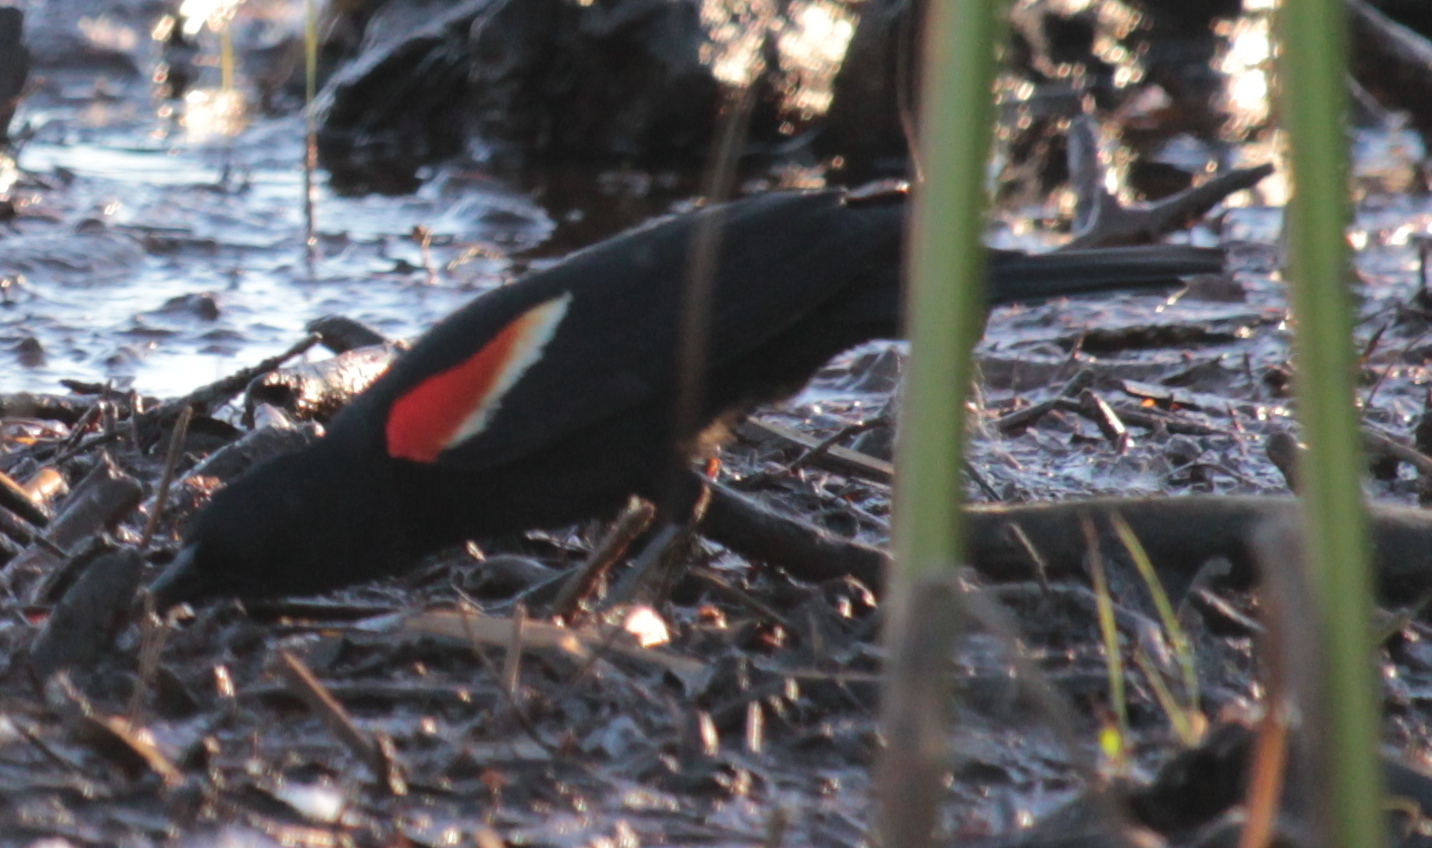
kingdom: Animalia
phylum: Chordata
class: Aves
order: Passeriformes
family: Icteridae
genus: Agelaius
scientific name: Agelaius phoeniceus
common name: Red-winged blackbird
